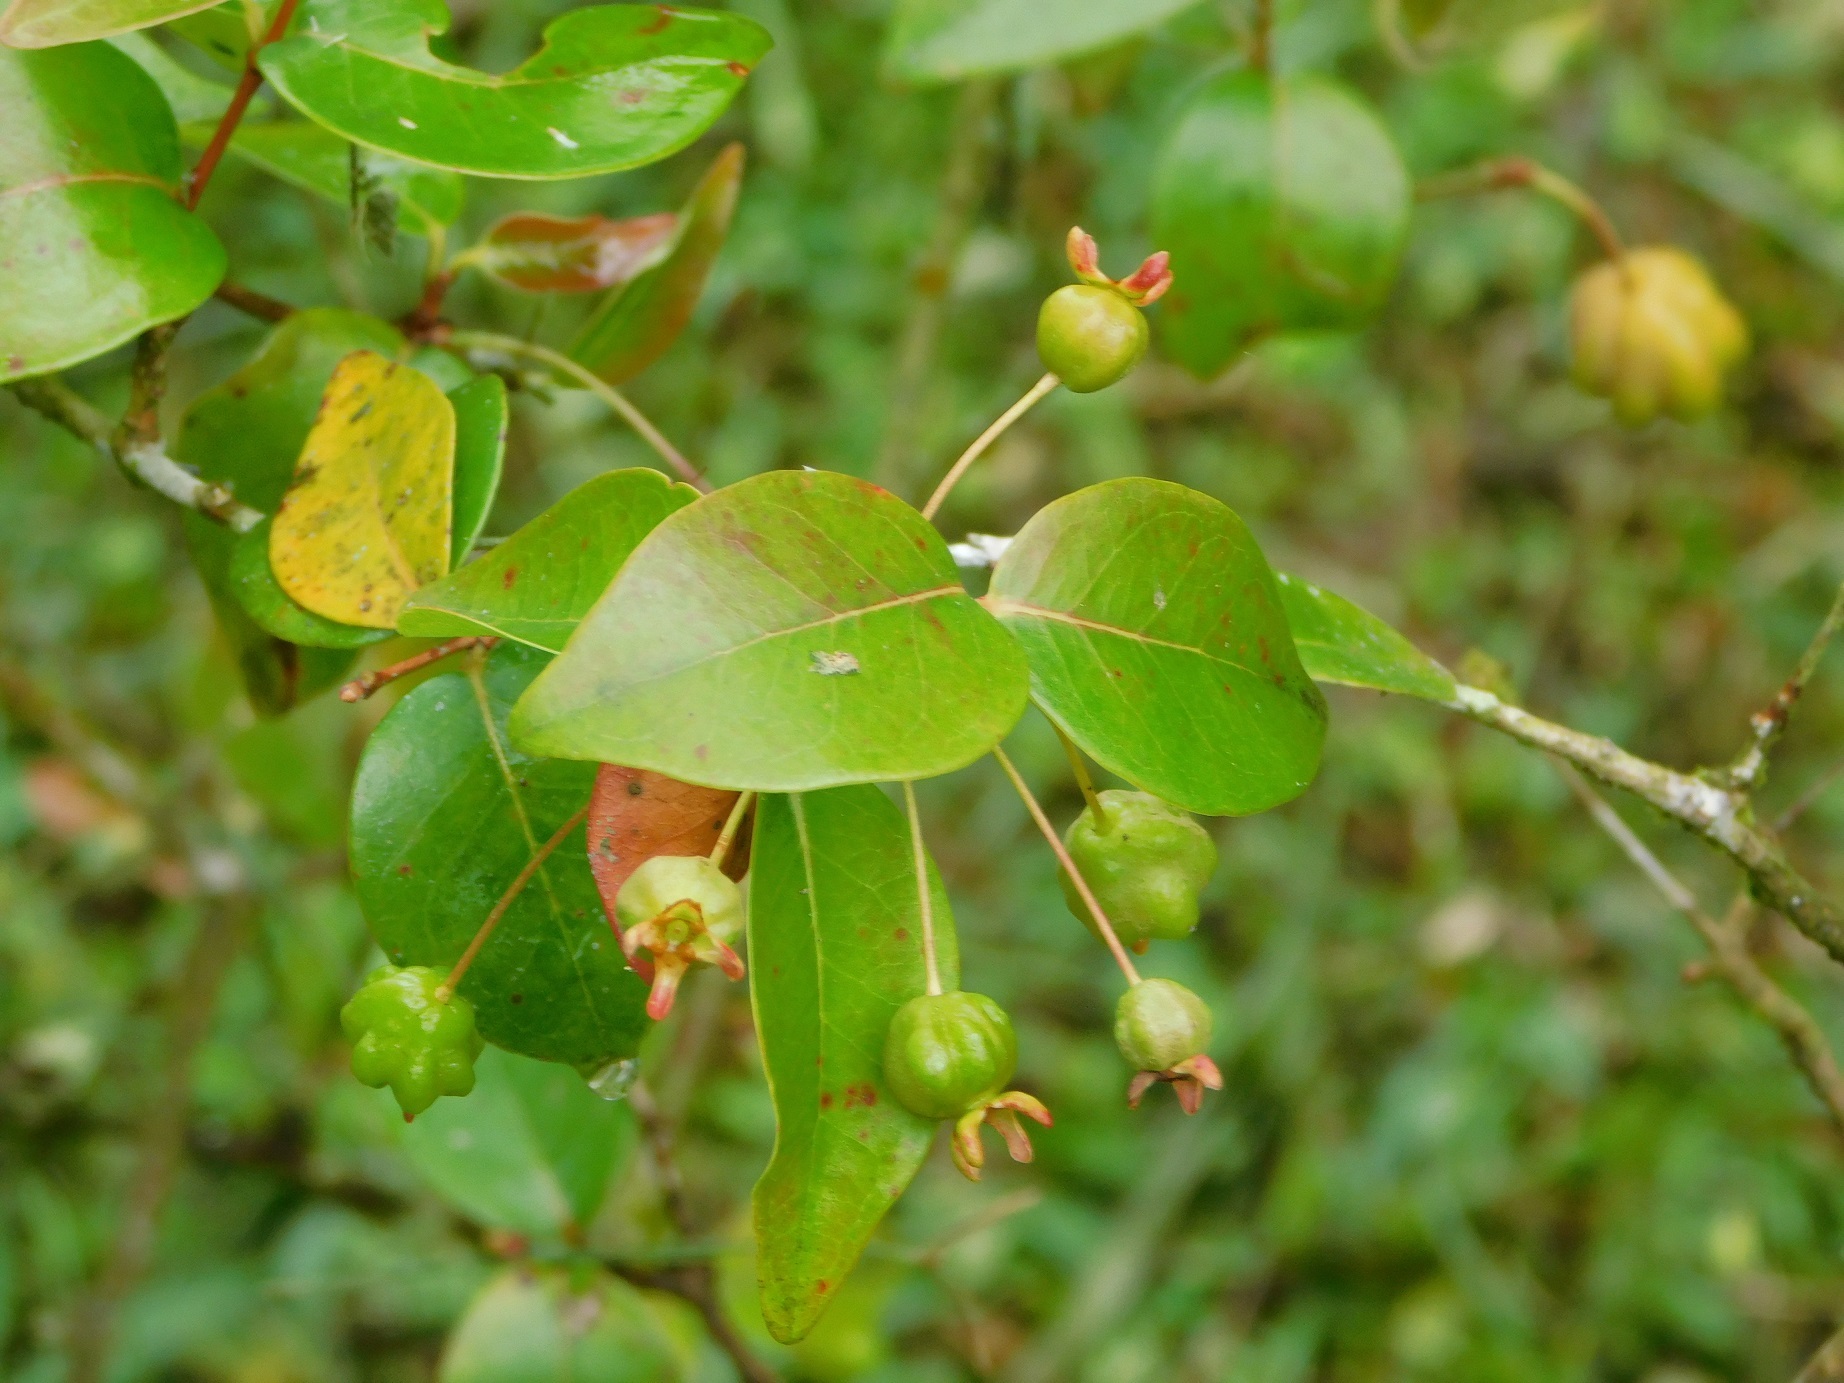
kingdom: Plantae
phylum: Tracheophyta
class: Magnoliopsida
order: Myrtales
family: Myrtaceae
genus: Eugenia
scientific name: Eugenia uniflora
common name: Surinam cherry
